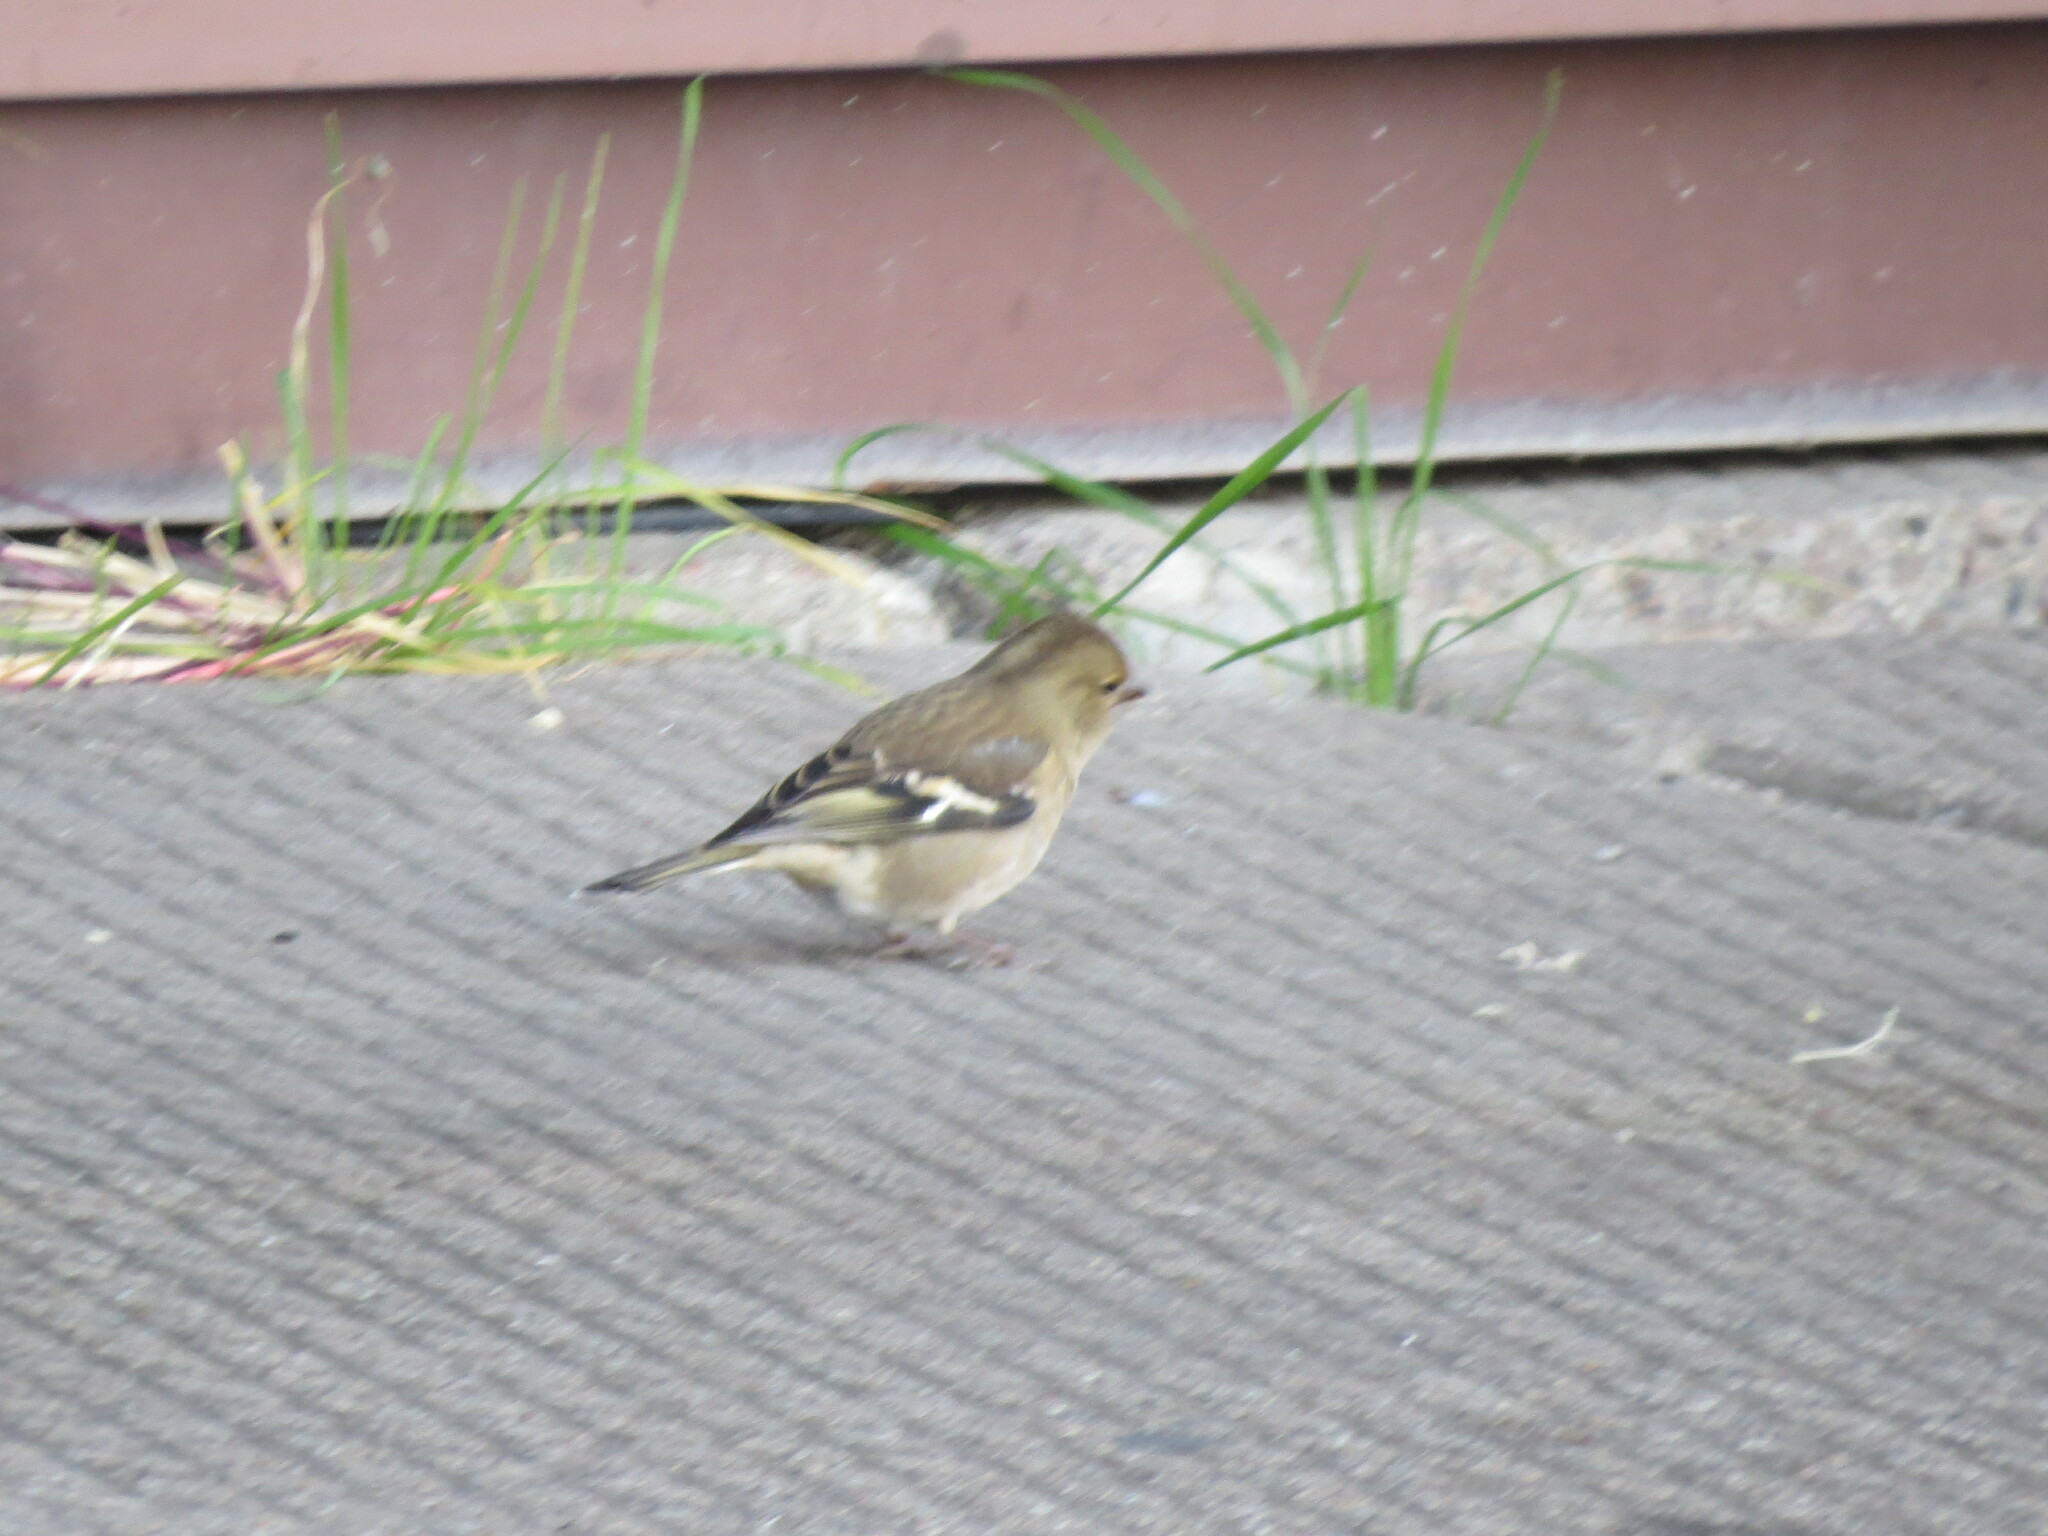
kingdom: Animalia
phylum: Chordata
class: Aves
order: Passeriformes
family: Fringillidae
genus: Fringilla
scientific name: Fringilla coelebs
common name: Common chaffinch
